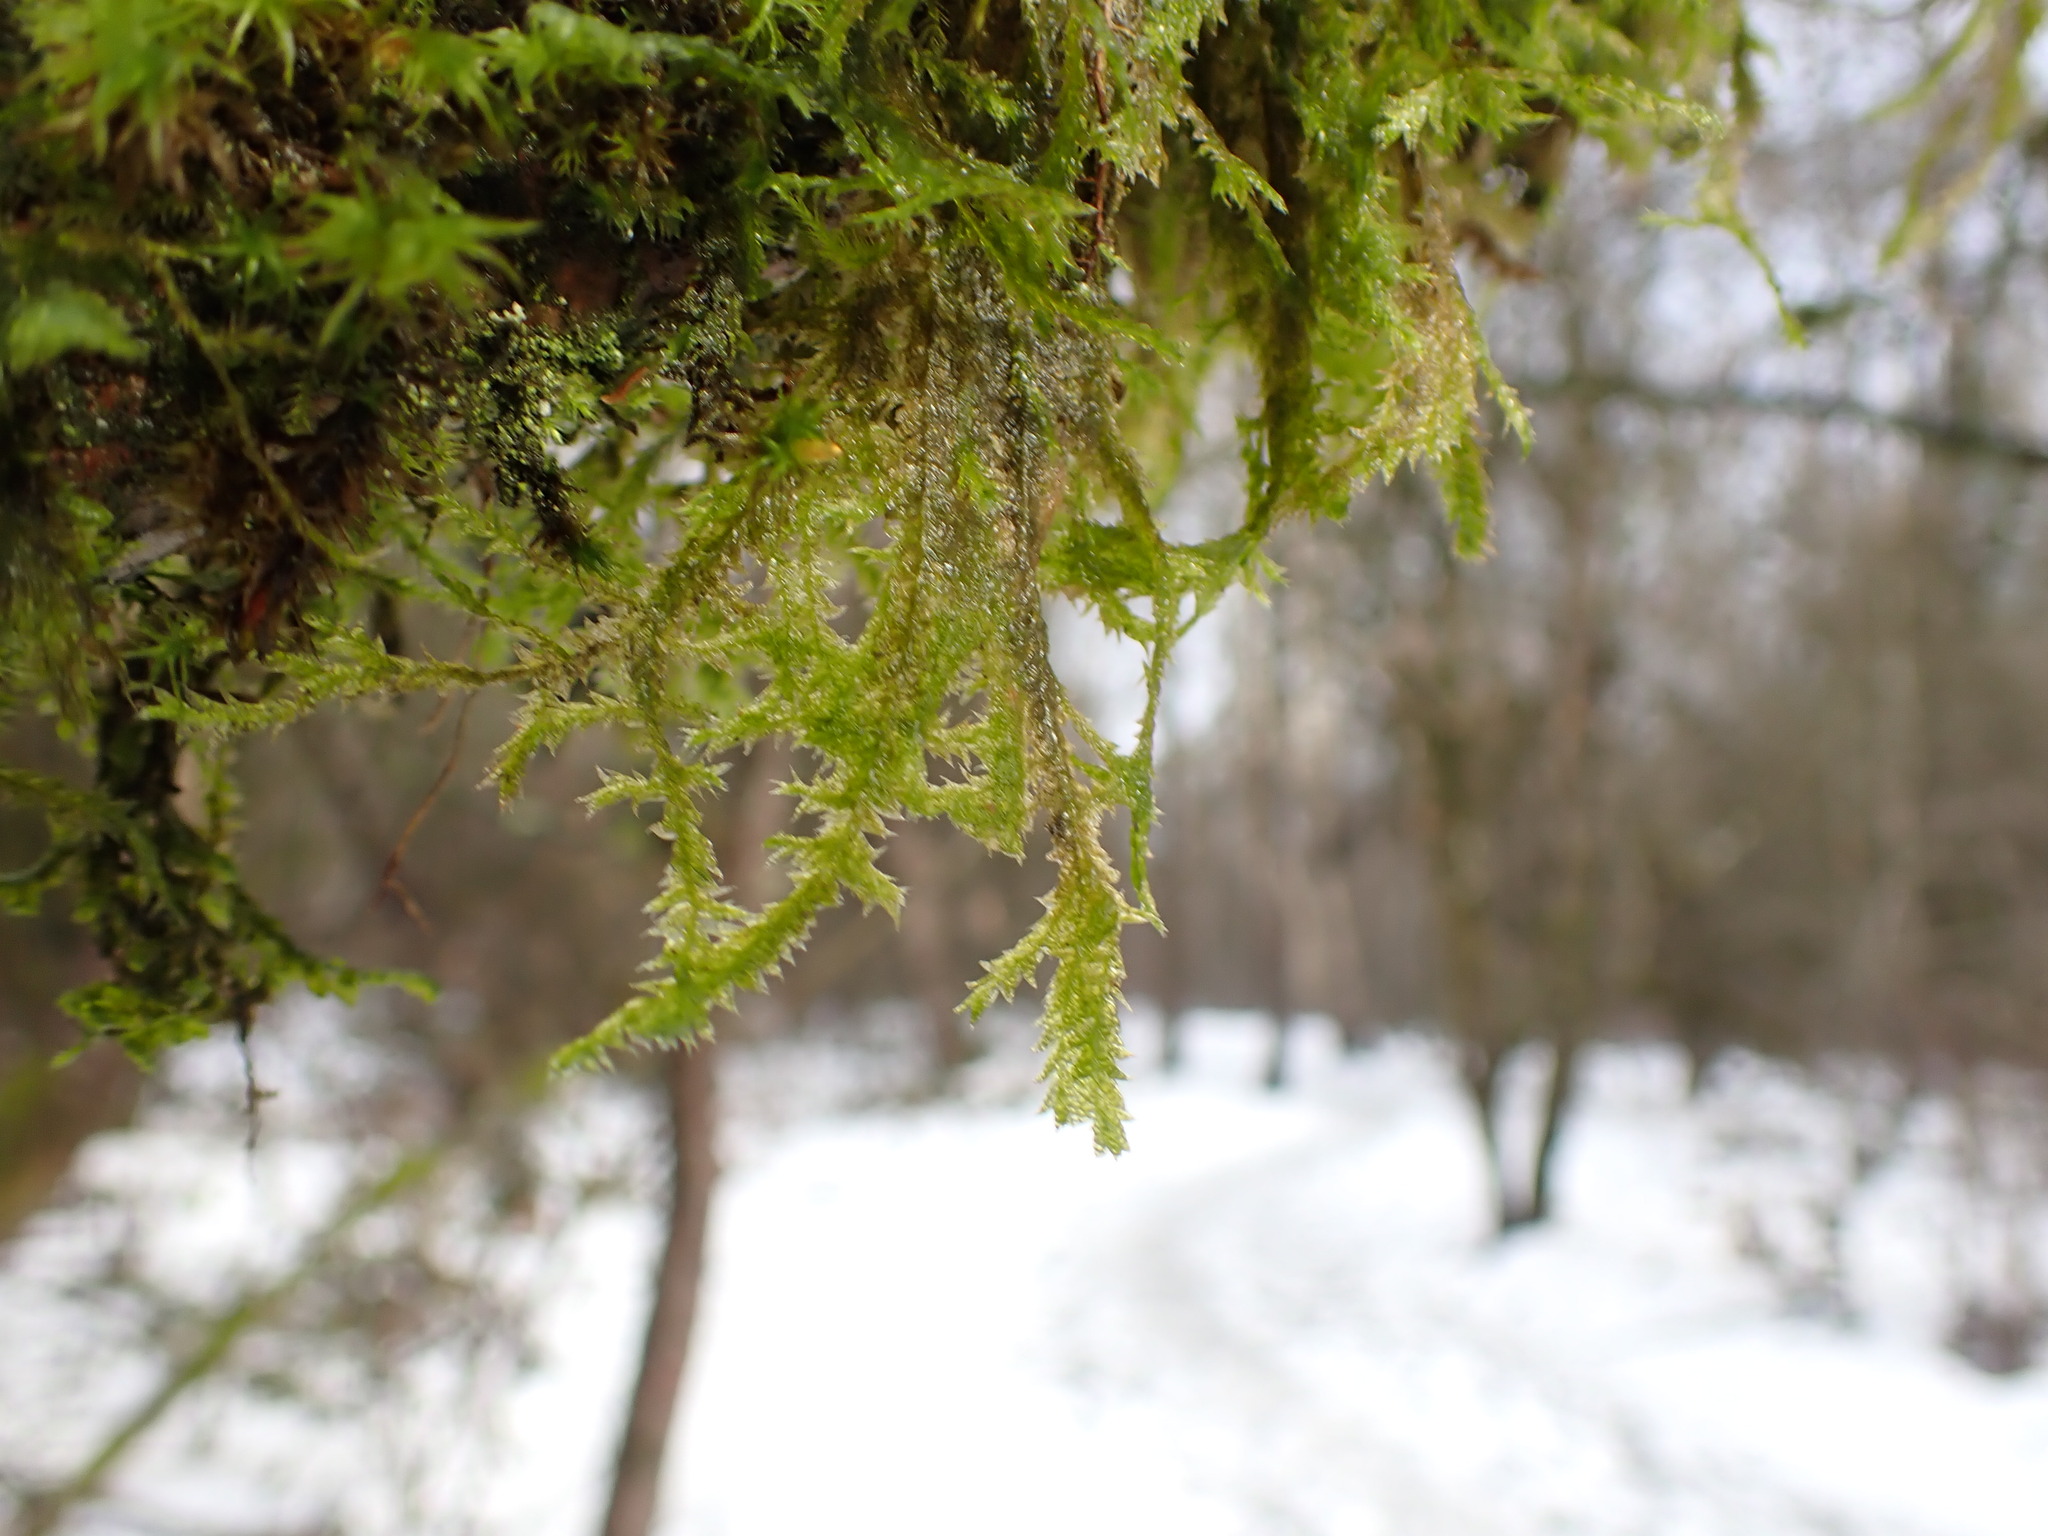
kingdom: Plantae
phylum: Bryophyta
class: Bryopsida
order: Hypnales
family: Neckeraceae
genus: Neckera
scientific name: Neckera douglasii
